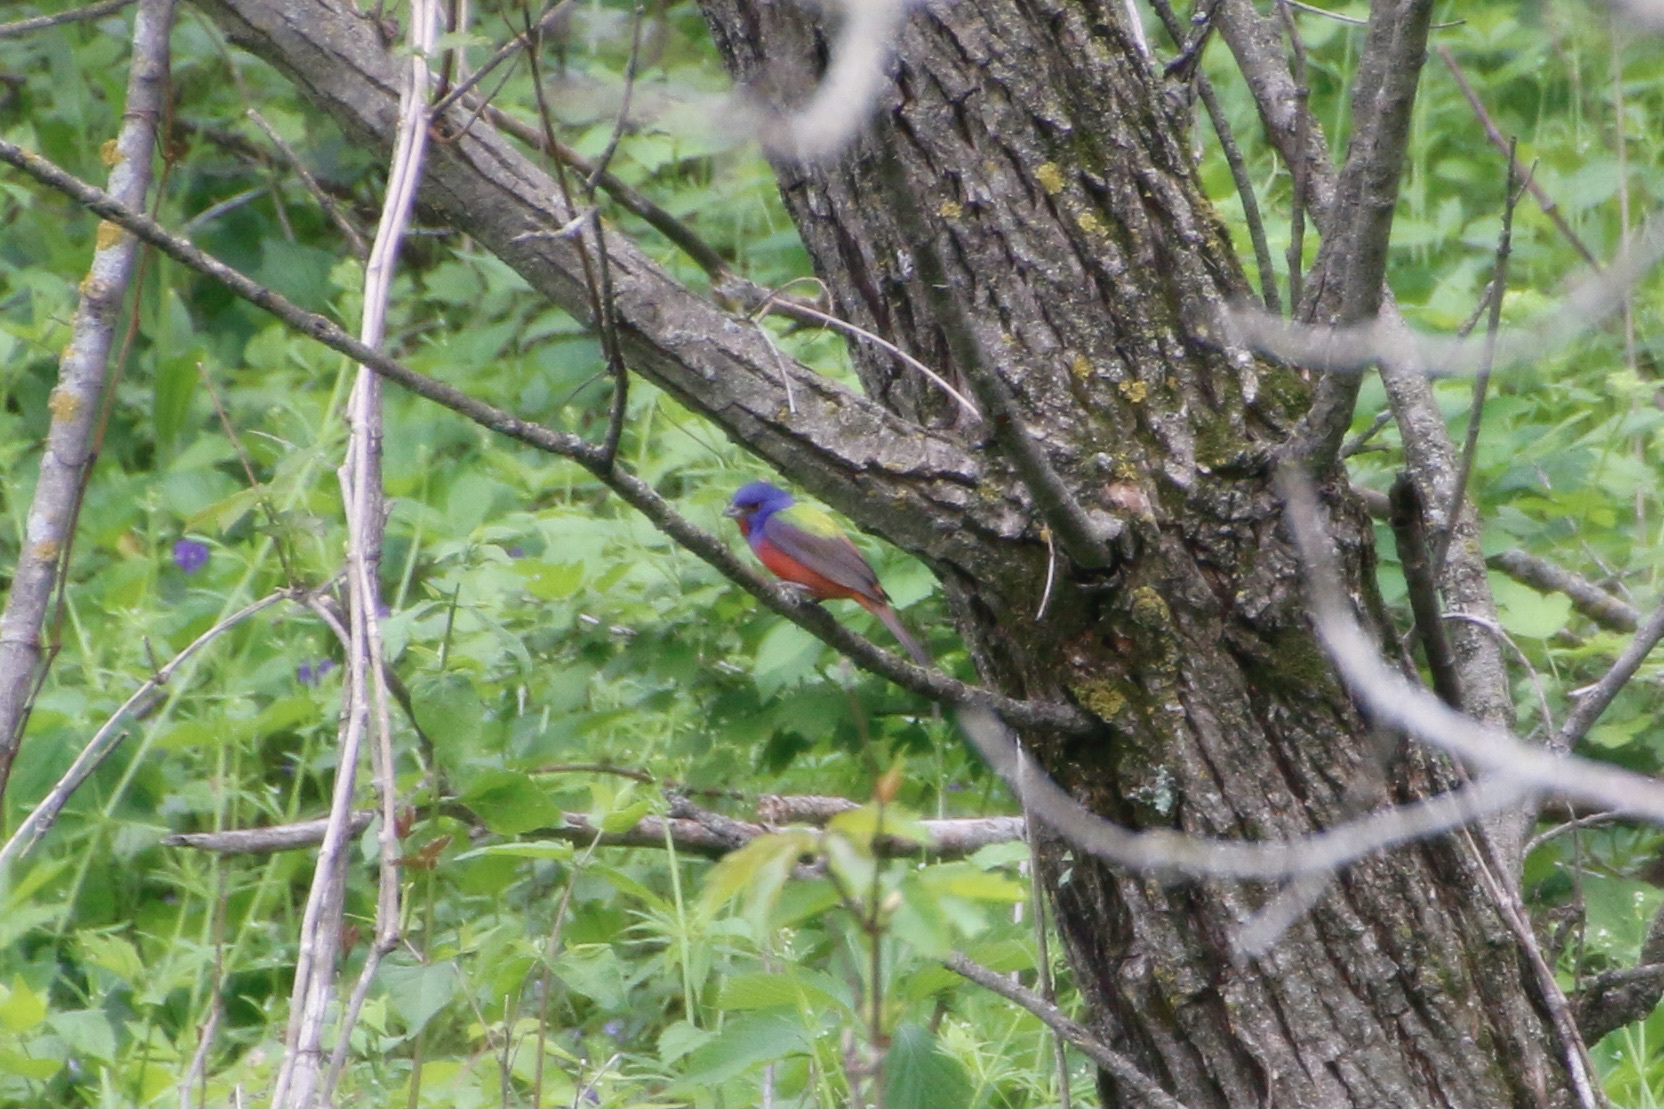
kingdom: Animalia
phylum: Chordata
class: Aves
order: Passeriformes
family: Cardinalidae
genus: Passerina
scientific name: Passerina ciris
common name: Painted bunting
